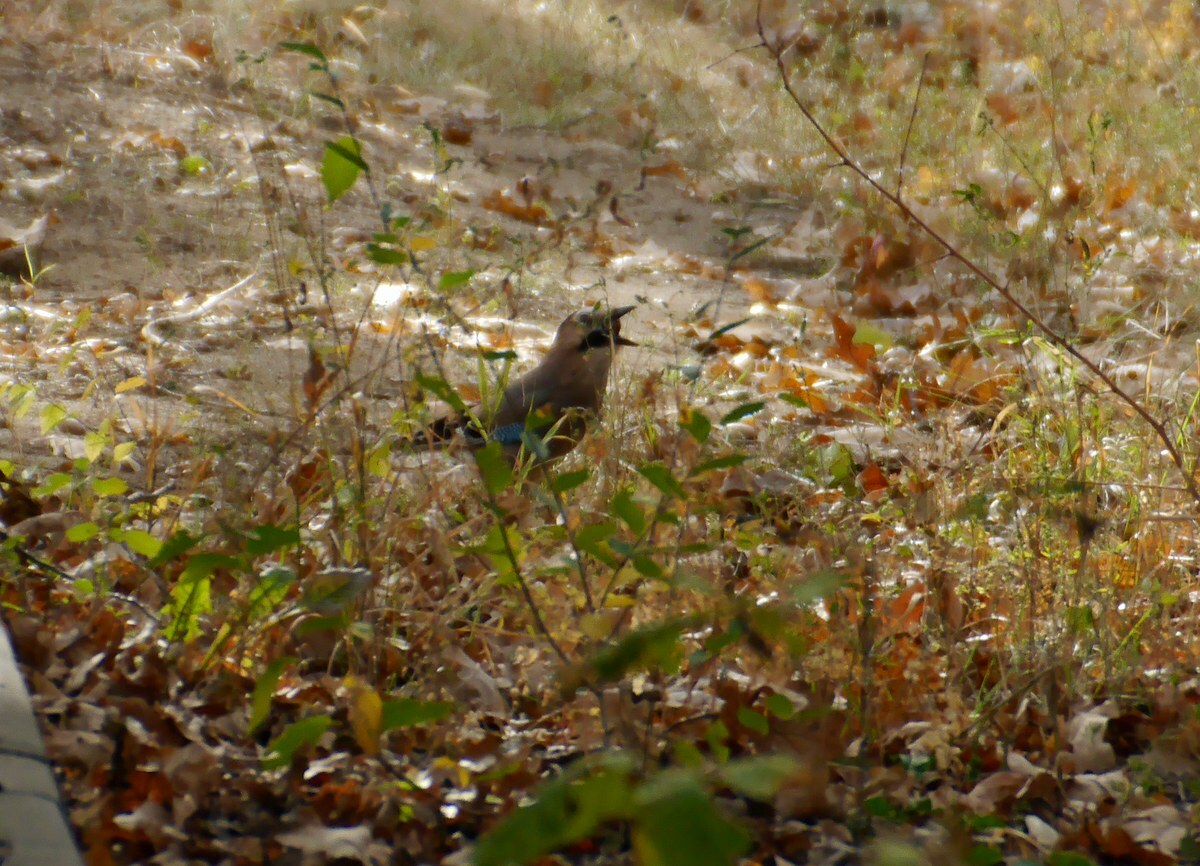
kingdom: Animalia
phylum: Chordata
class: Aves
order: Passeriformes
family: Corvidae
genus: Garrulus
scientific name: Garrulus glandarius
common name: Eurasian jay
